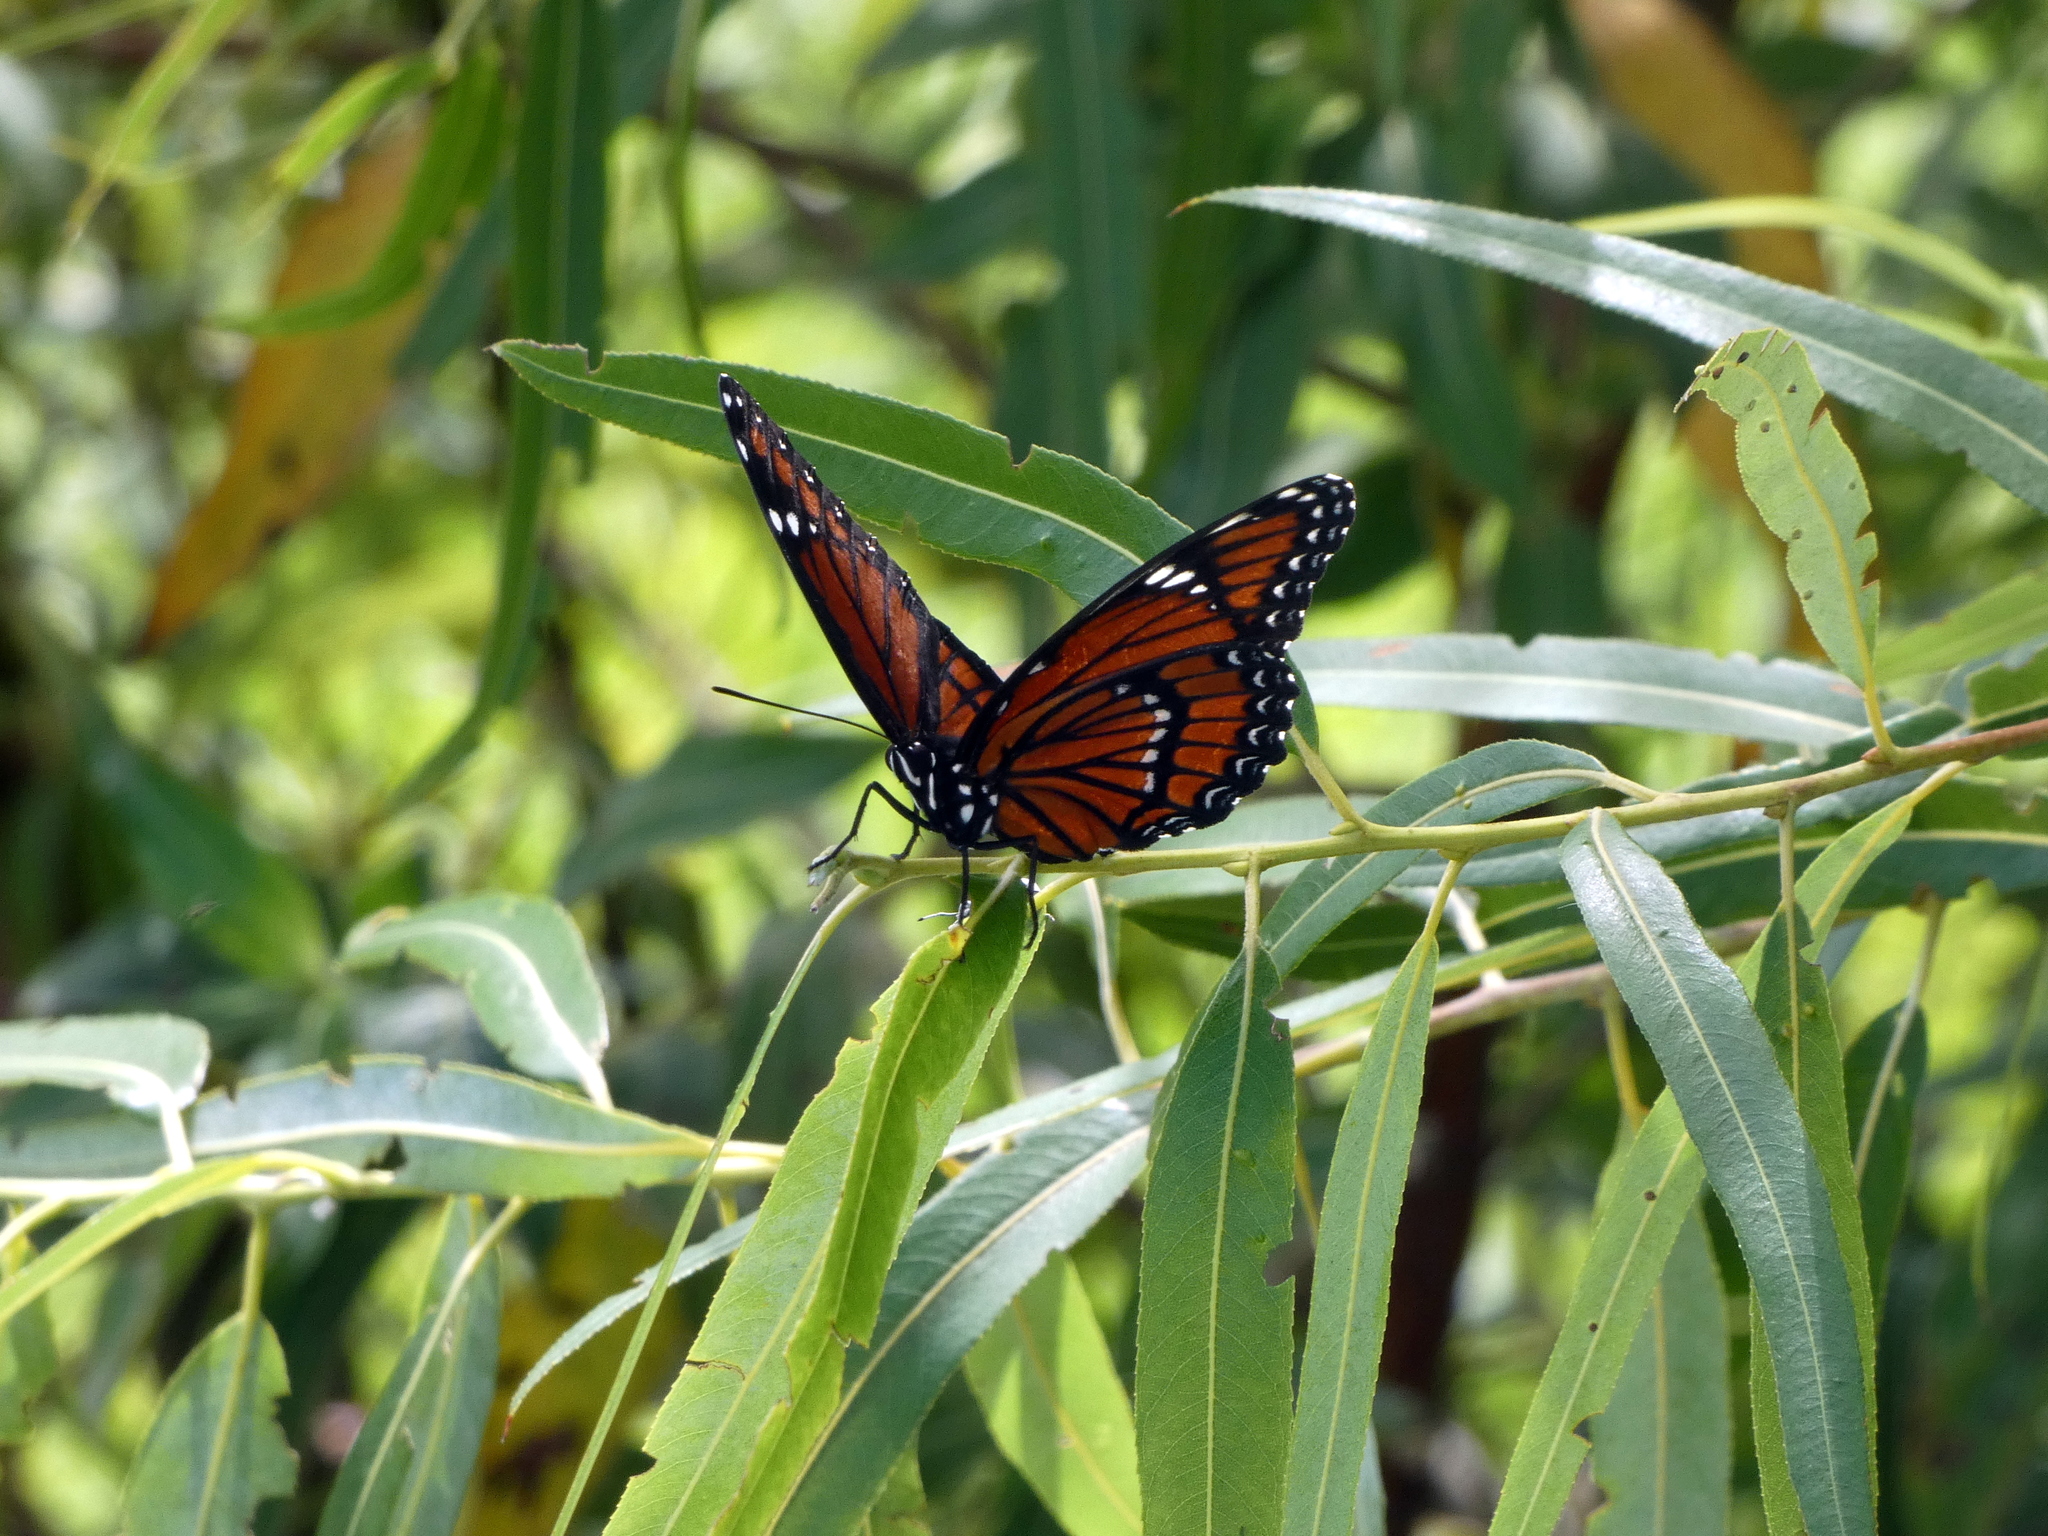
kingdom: Animalia
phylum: Arthropoda
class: Insecta
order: Lepidoptera
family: Nymphalidae
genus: Limenitis
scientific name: Limenitis archippus
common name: Viceroy
